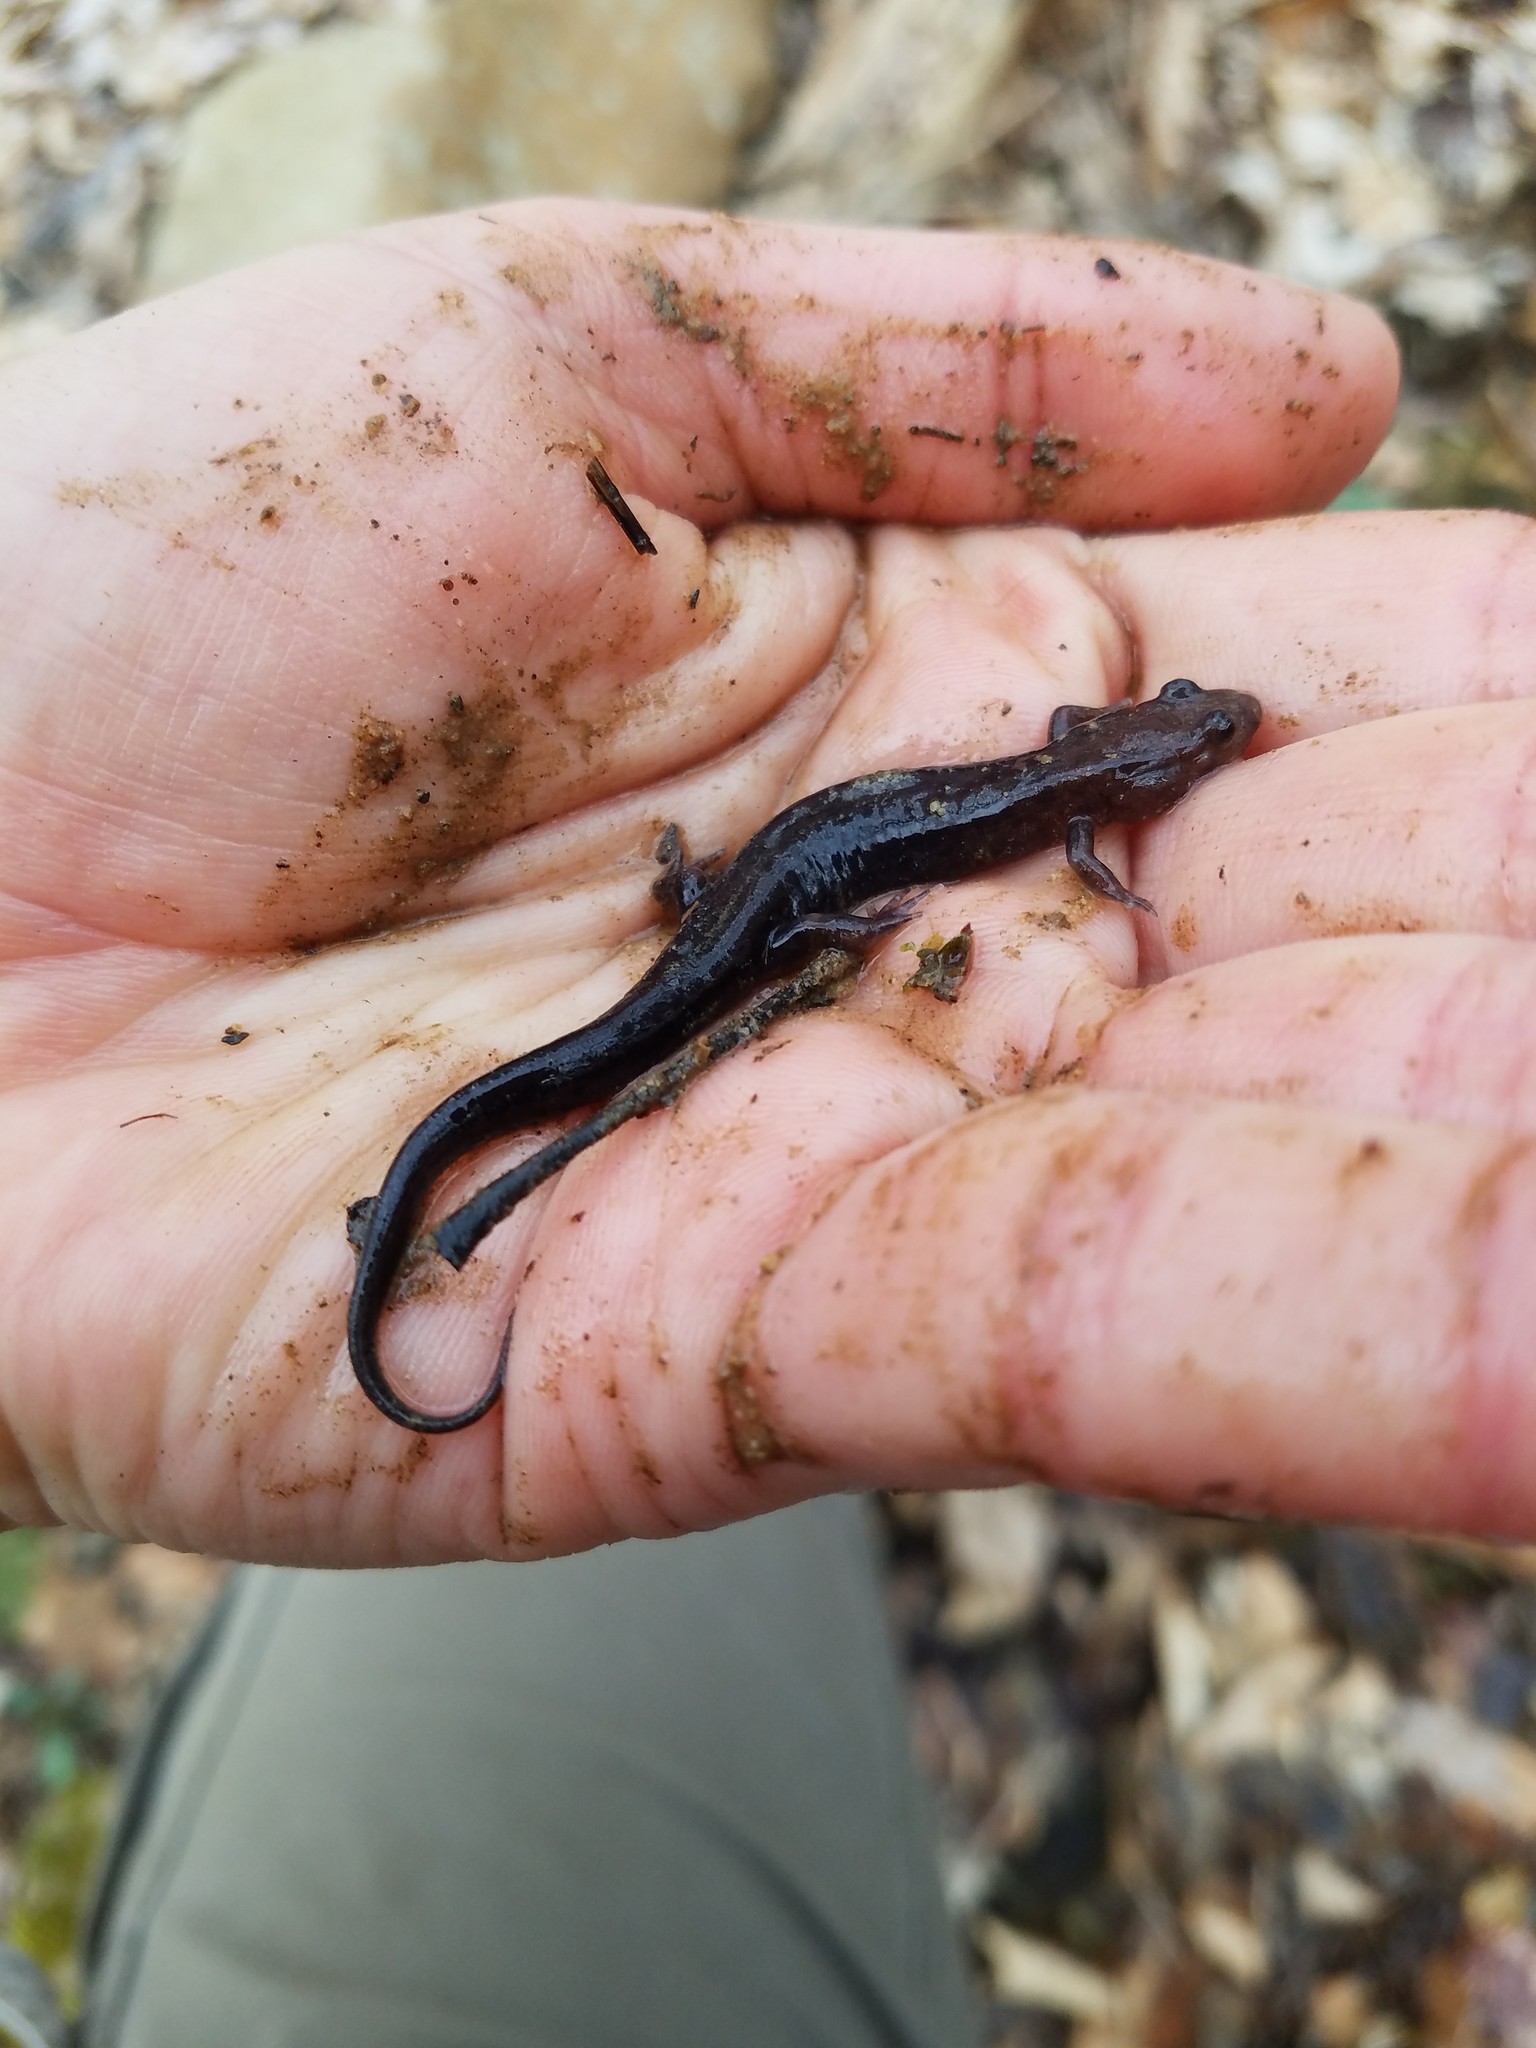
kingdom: Animalia
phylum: Chordata
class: Amphibia
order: Caudata
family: Plethodontidae
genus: Desmognathus
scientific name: Desmognathus ochrophaeus
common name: Allegheny mountain dusky salamander
